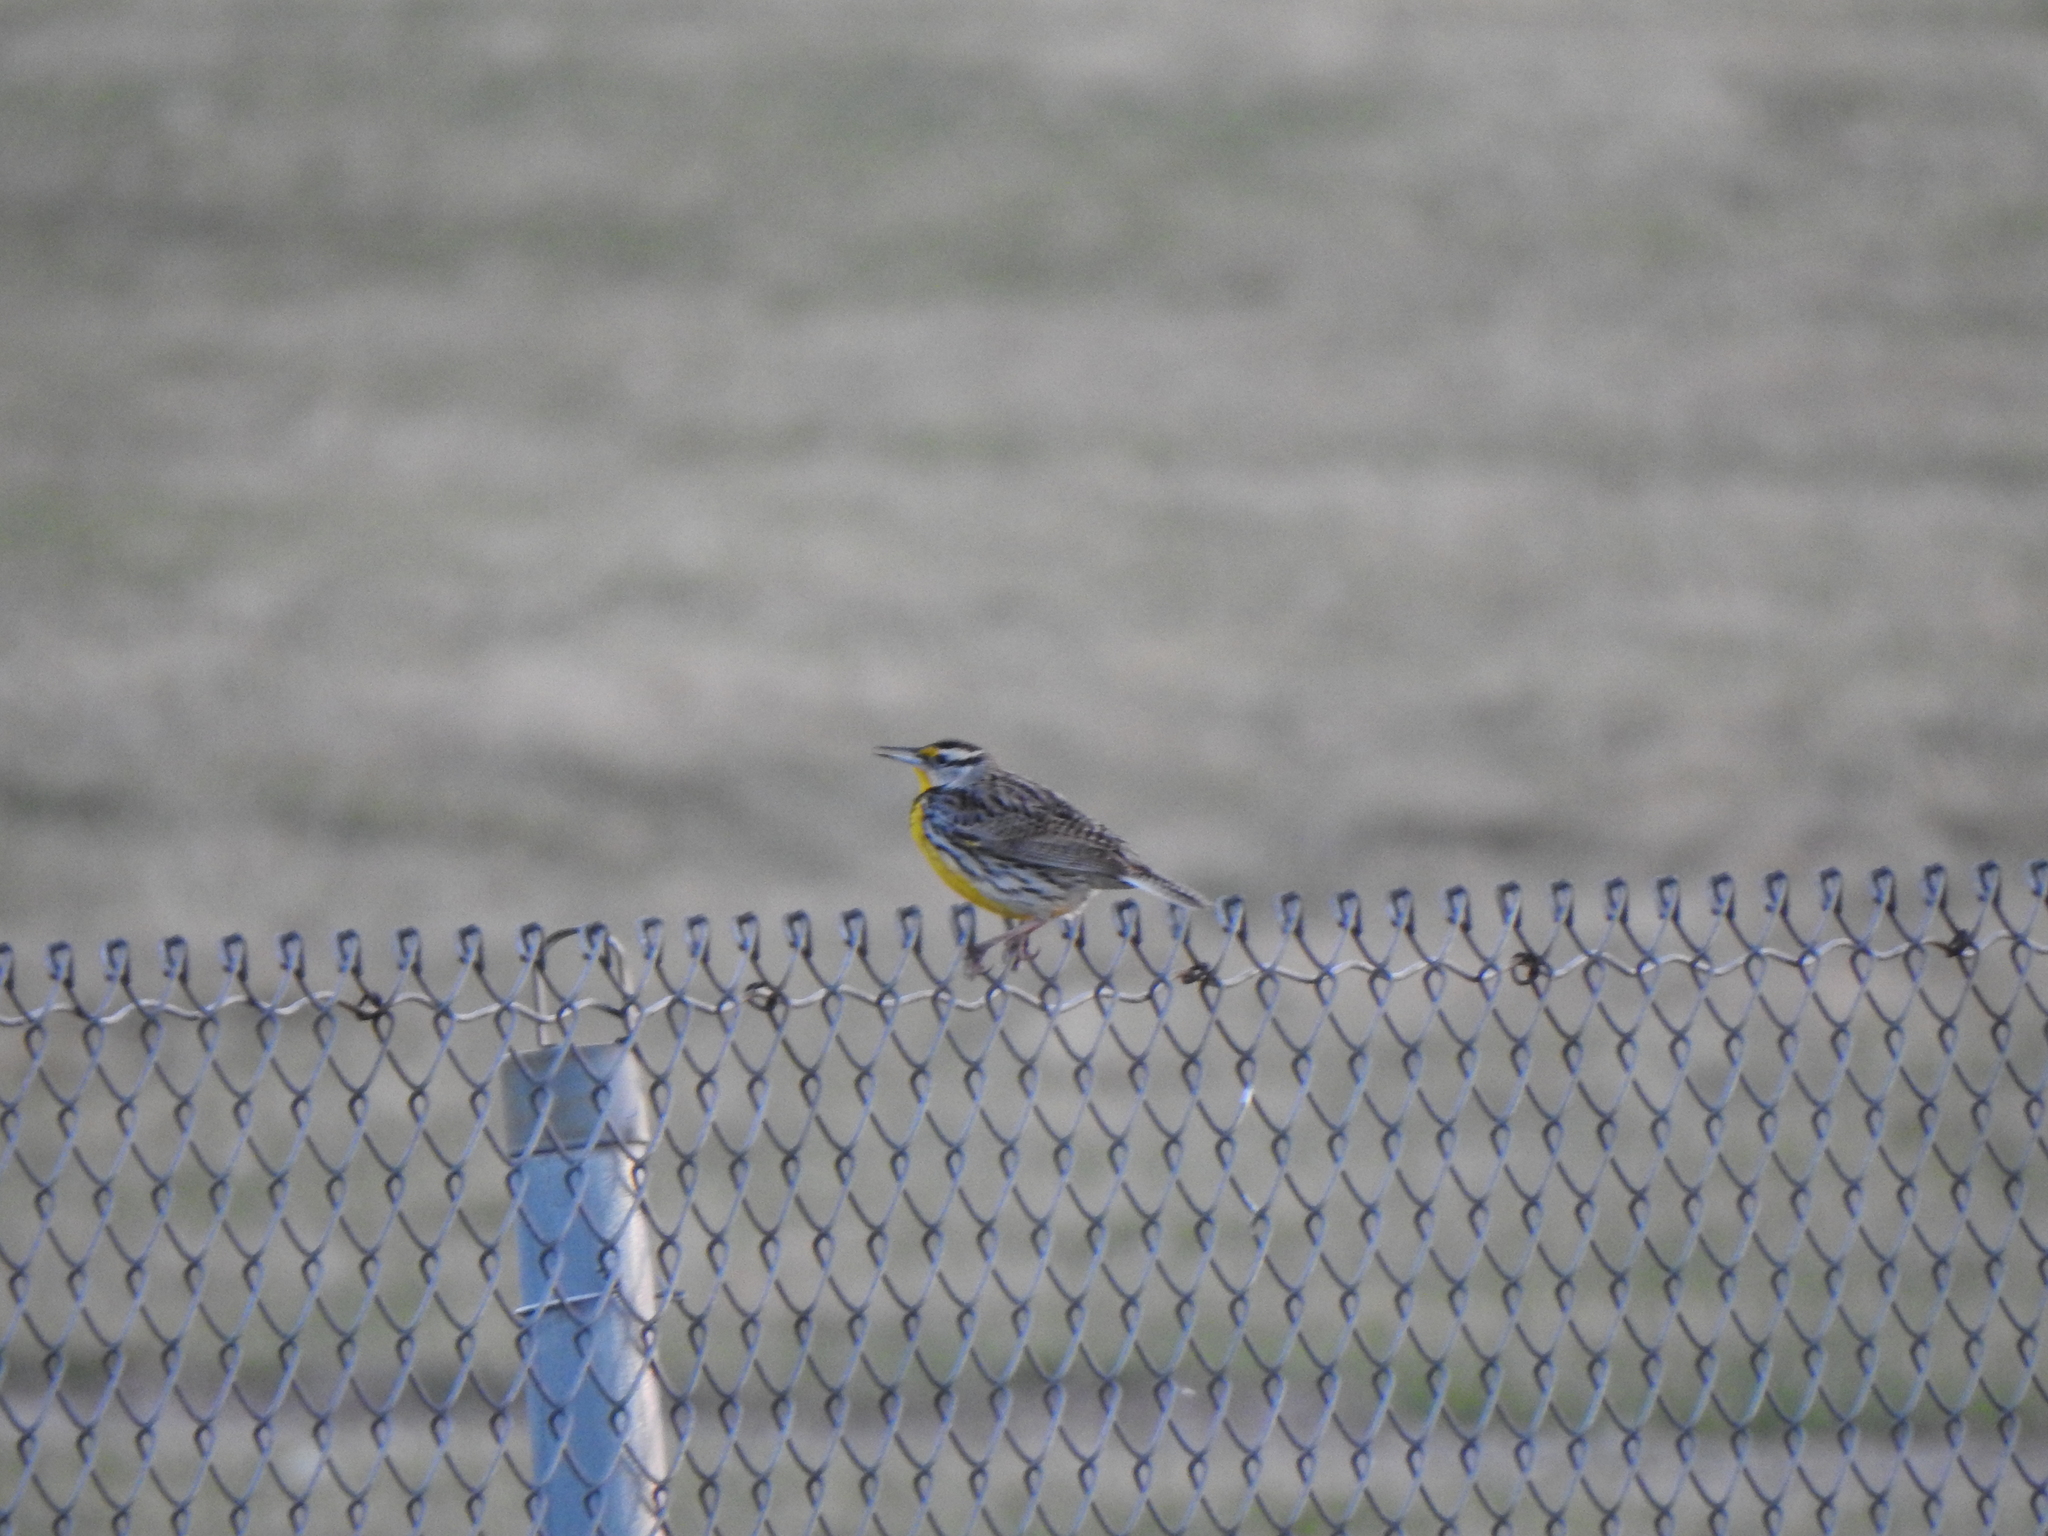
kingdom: Animalia
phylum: Chordata
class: Aves
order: Passeriformes
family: Icteridae
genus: Sturnella
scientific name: Sturnella magna
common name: Eastern meadowlark
